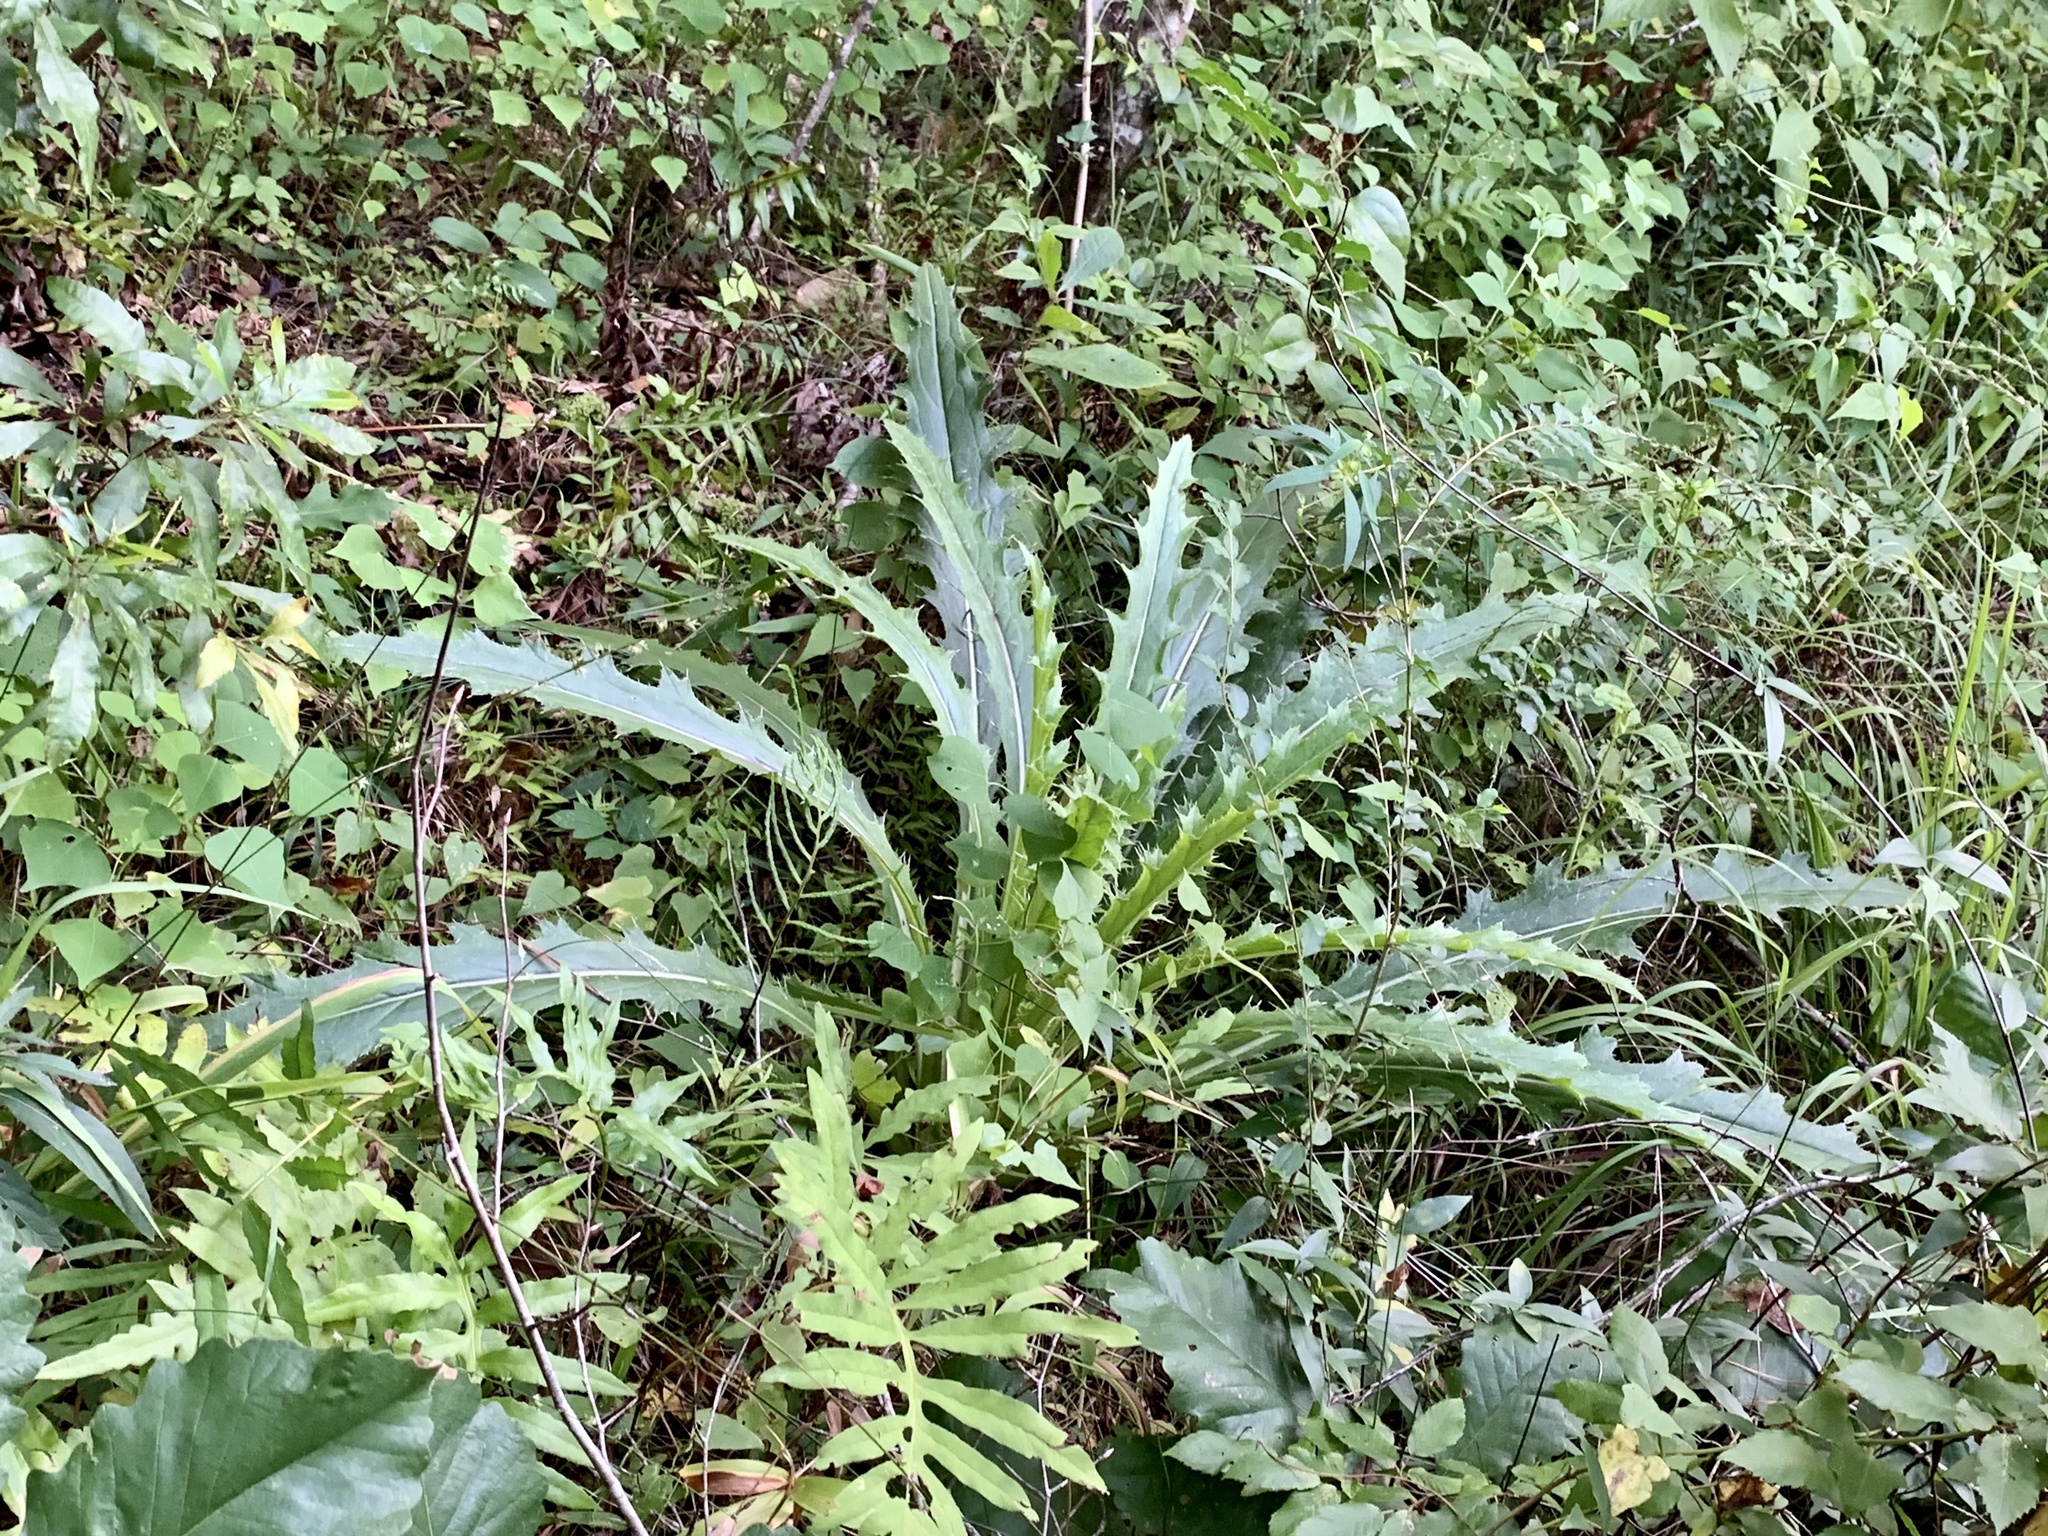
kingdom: Plantae
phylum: Tracheophyta
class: Magnoliopsida
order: Asterales
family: Asteraceae
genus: Cirsium
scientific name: Cirsium horridulum
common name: Bristly thistle
